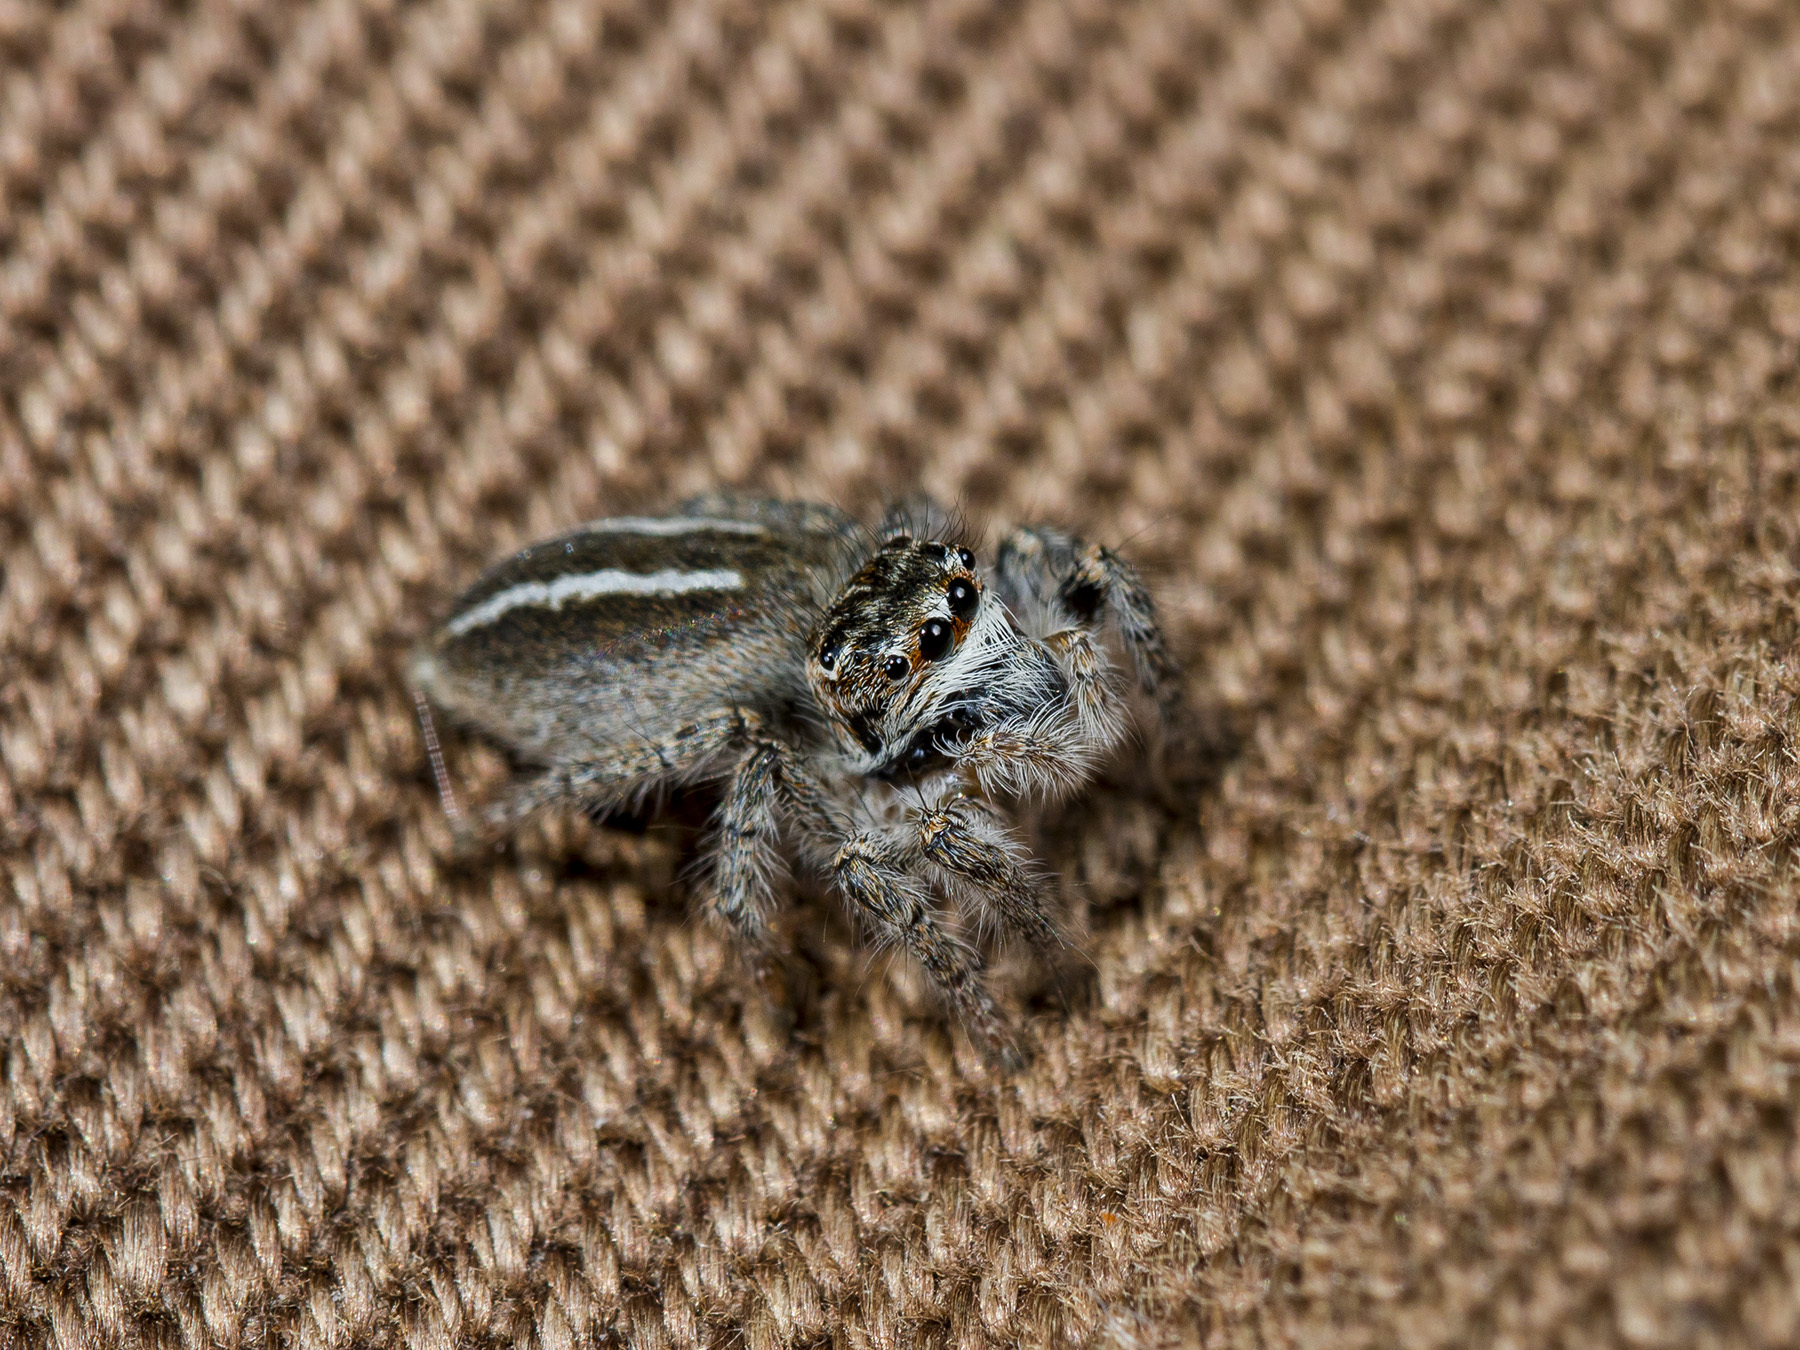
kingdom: Animalia
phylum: Arthropoda
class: Arachnida
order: Araneae
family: Salticidae
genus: Philaeus
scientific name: Philaeus chrysops
